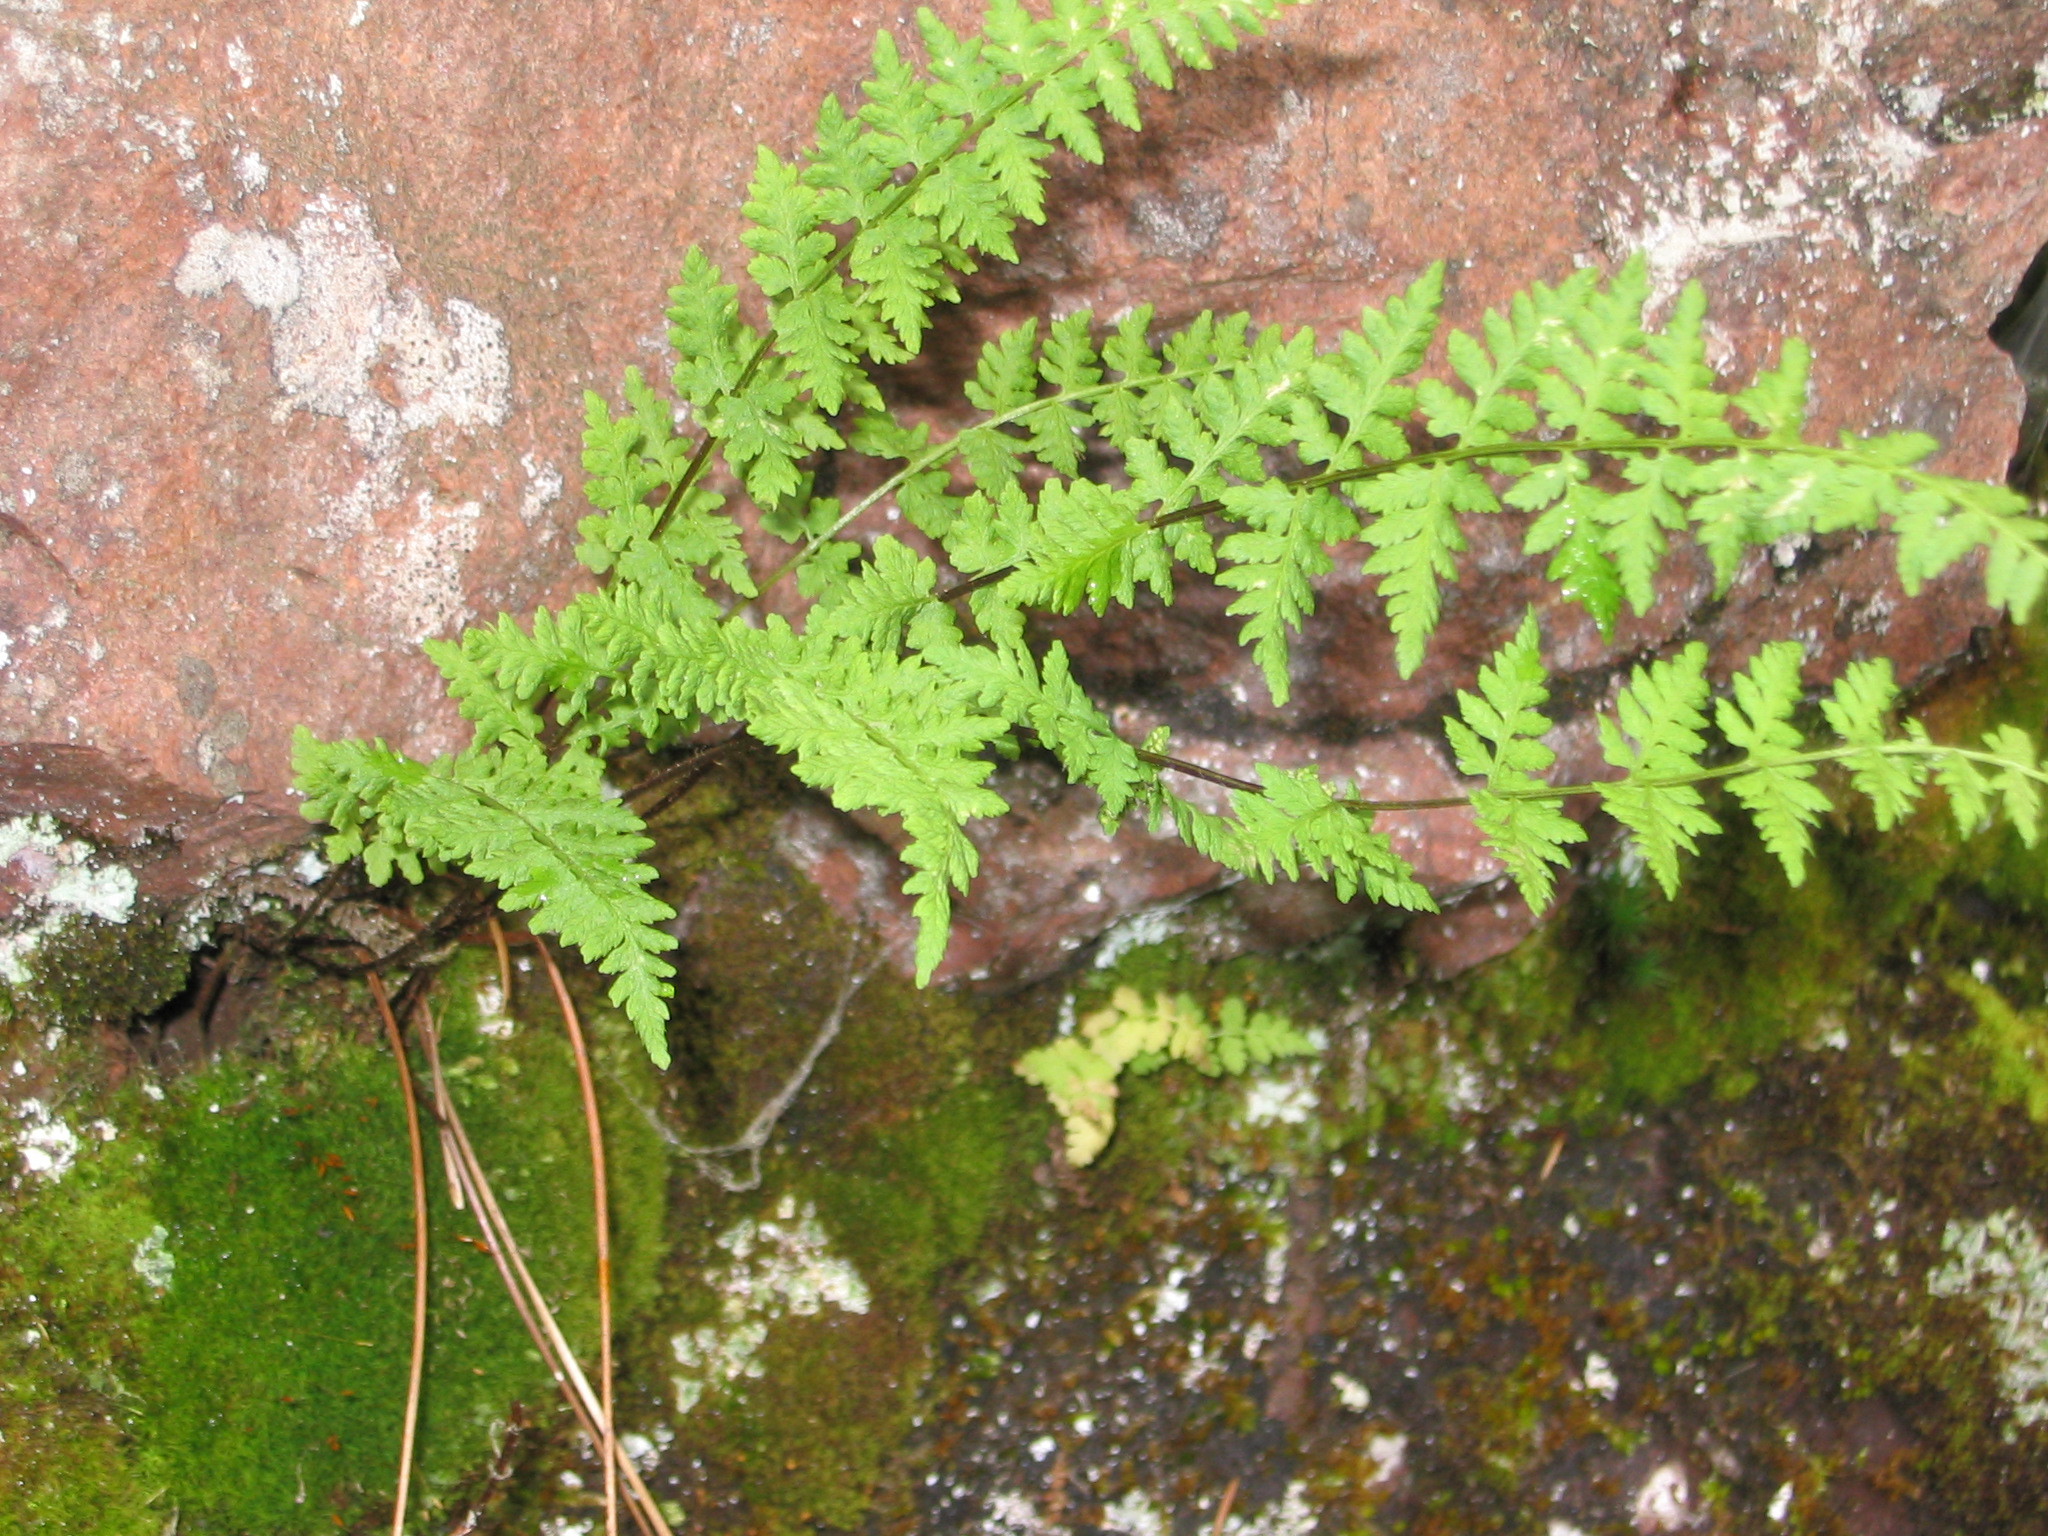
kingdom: Plantae
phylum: Tracheophyta
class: Polypodiopsida
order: Polypodiales
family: Woodsiaceae
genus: Physematium
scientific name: Physematium oreganum
